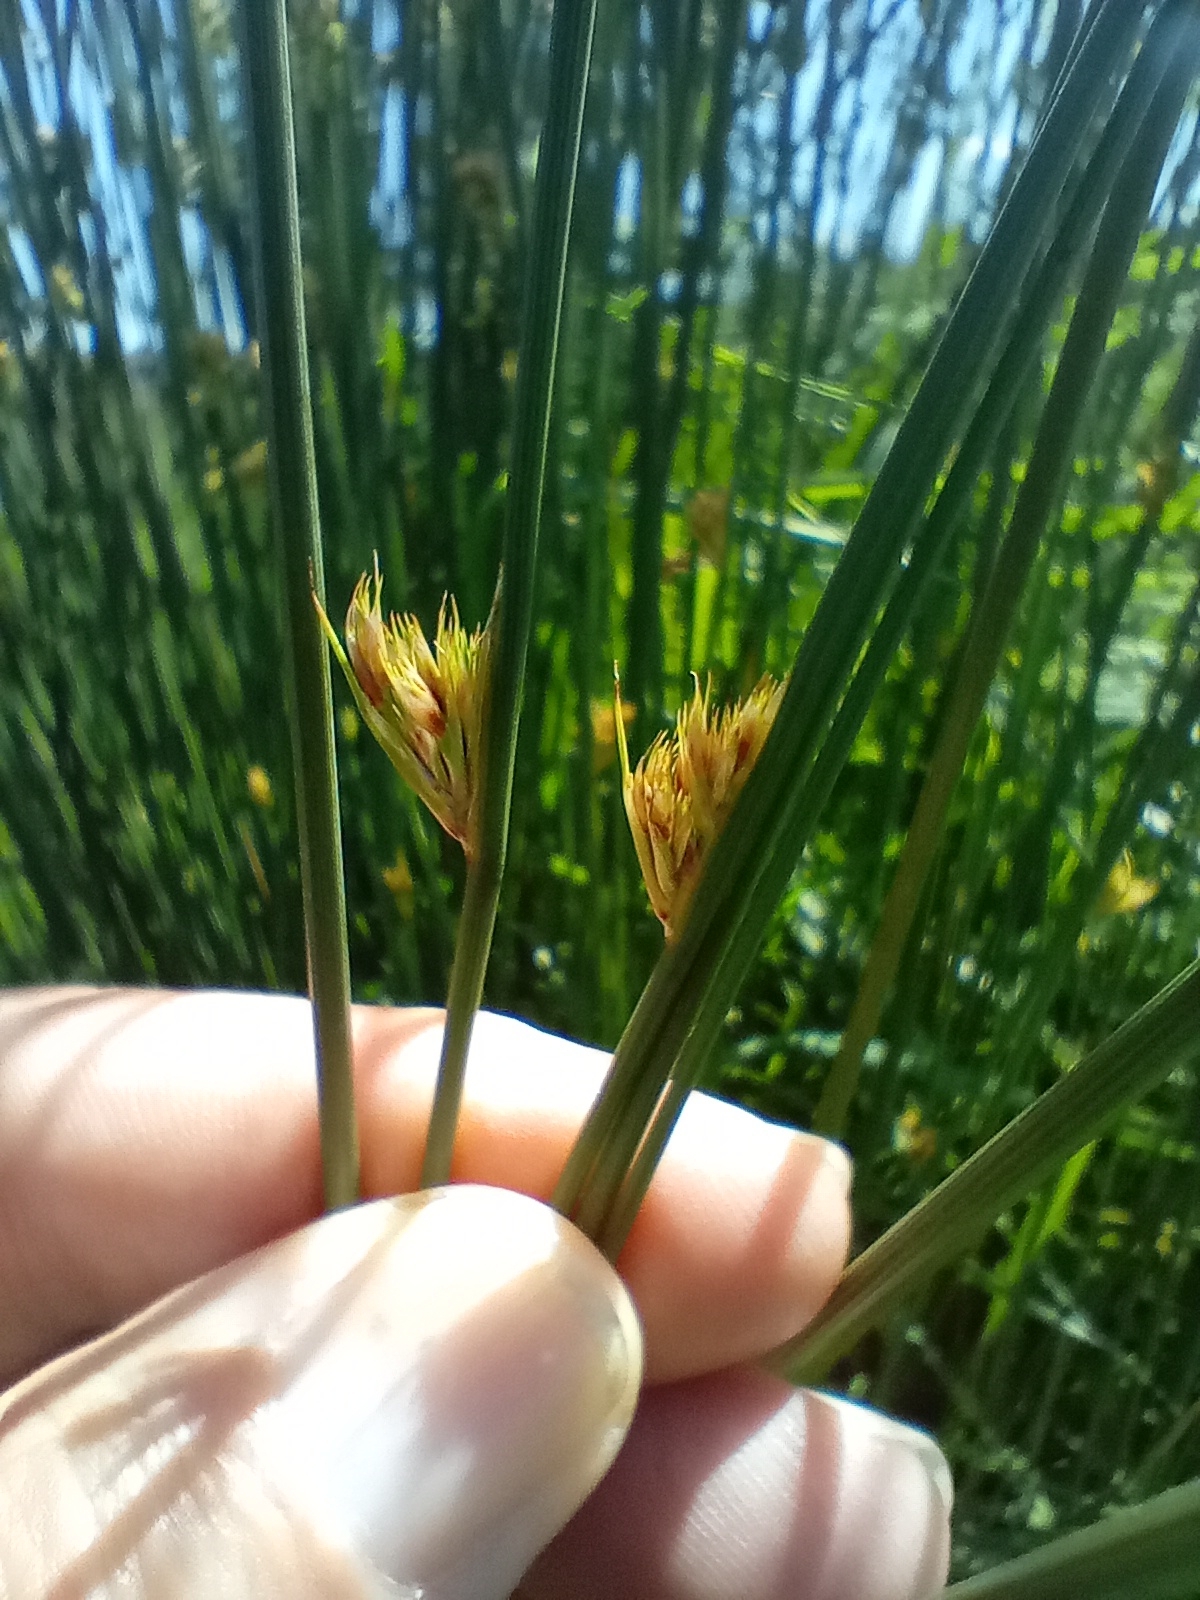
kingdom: Plantae
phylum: Tracheophyta
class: Liliopsida
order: Poales
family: Juncaceae
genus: Juncus
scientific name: Juncus sarophorus
